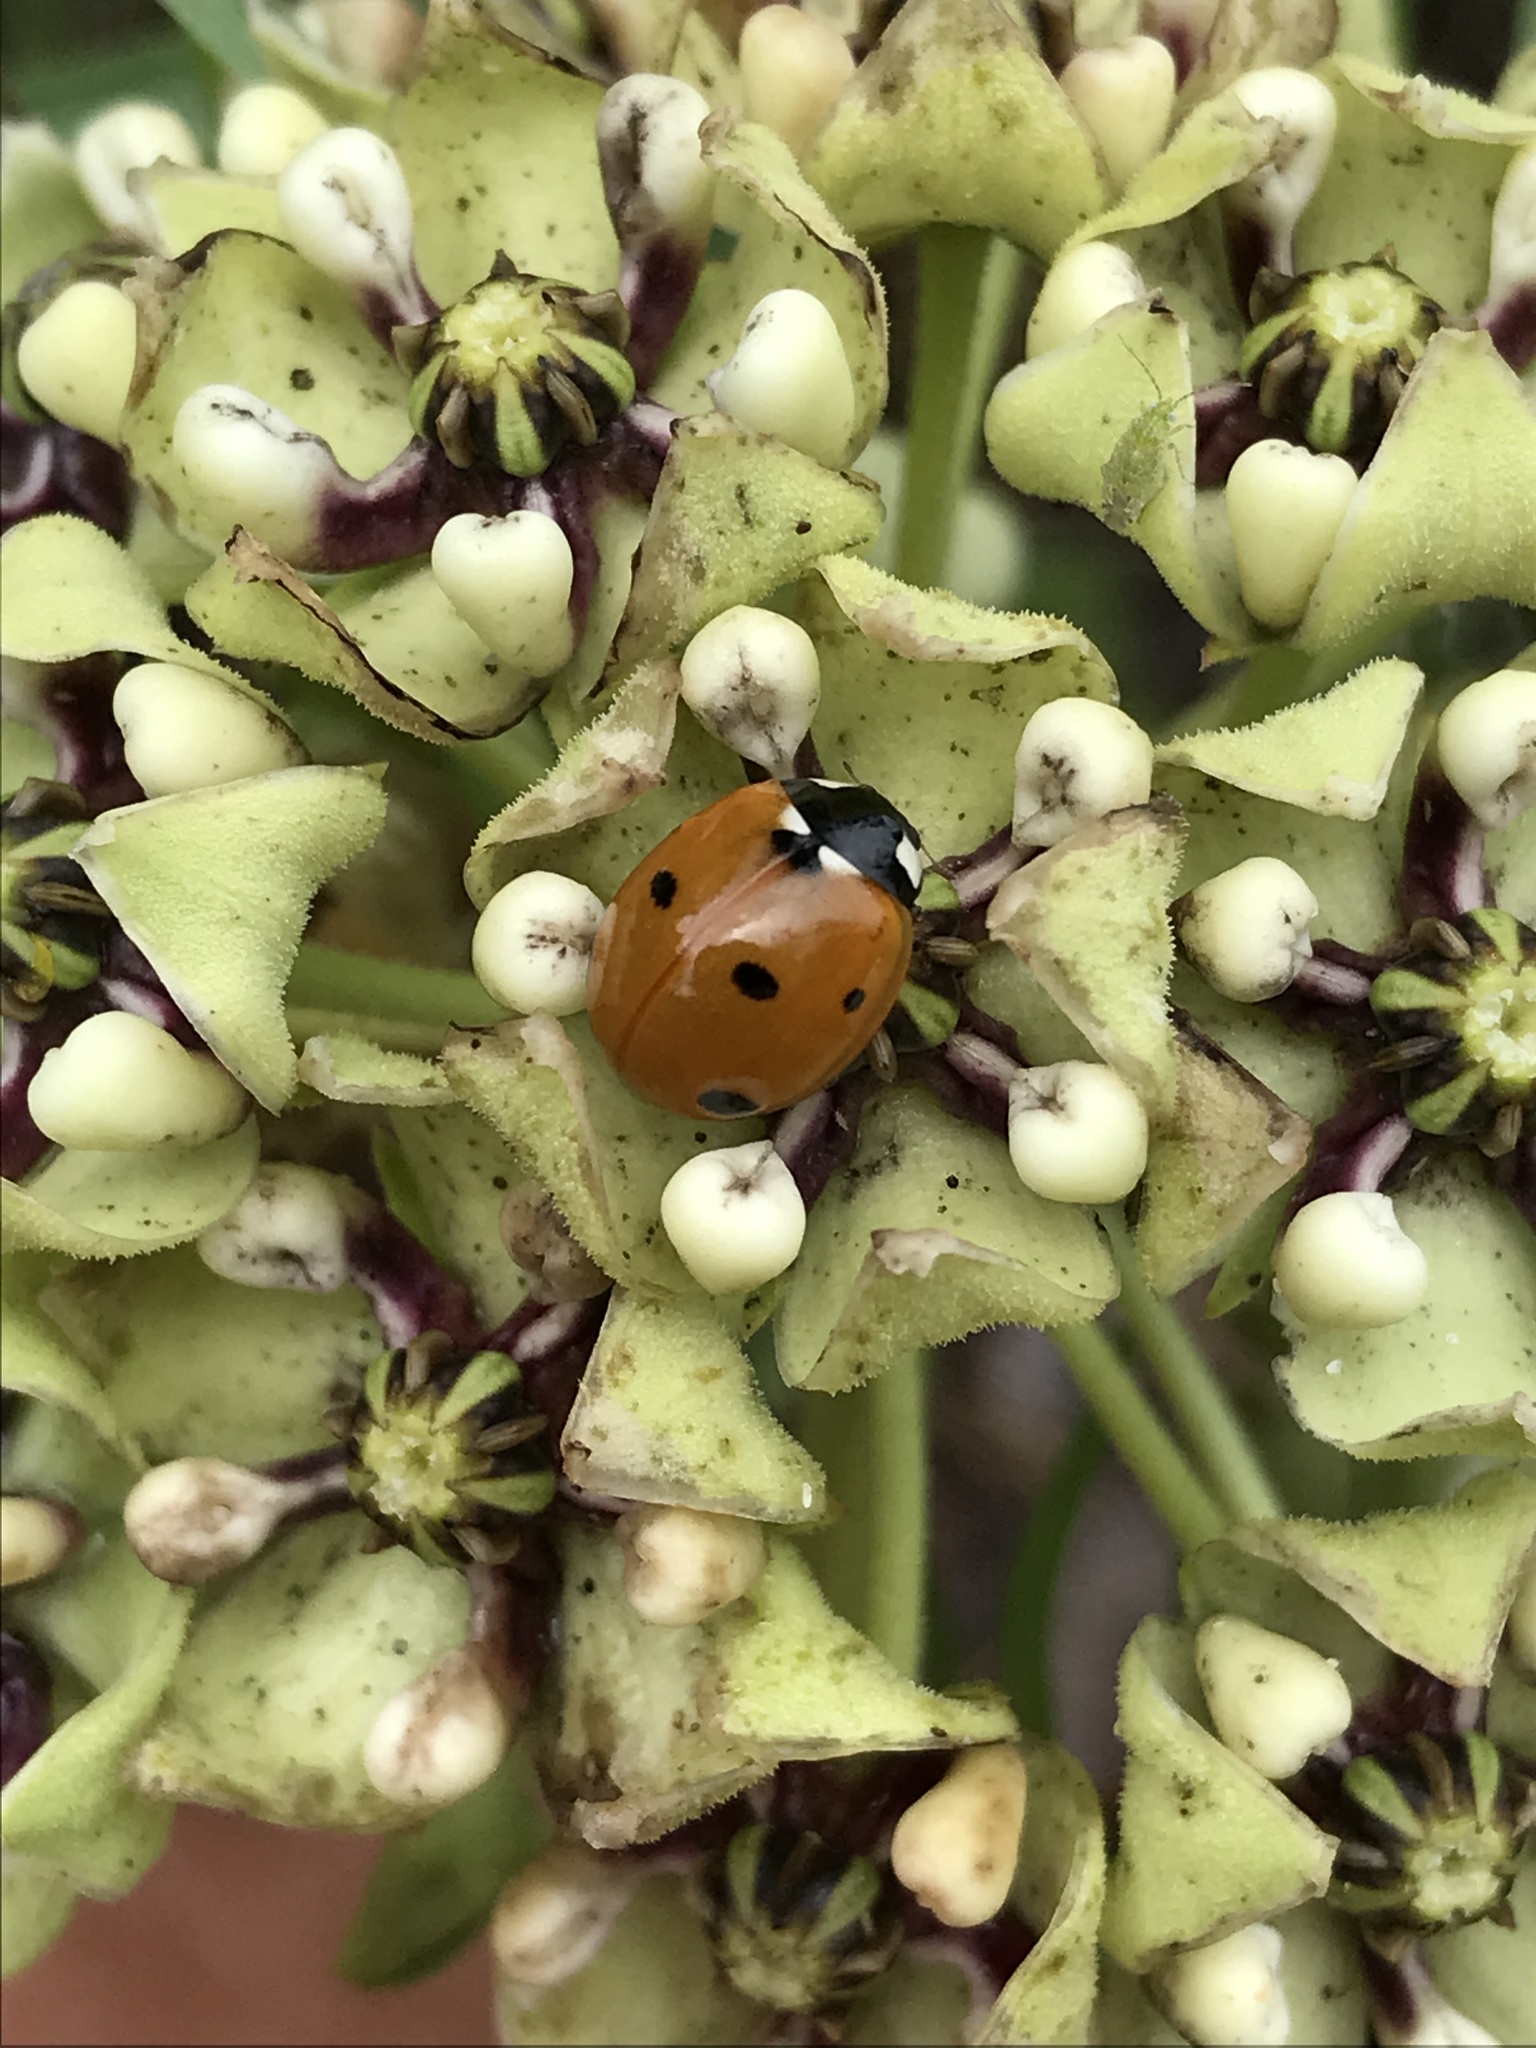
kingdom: Animalia
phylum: Arthropoda
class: Insecta
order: Coleoptera
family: Coccinellidae
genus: Coccinella
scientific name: Coccinella septempunctata
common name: Sevenspotted lady beetle
